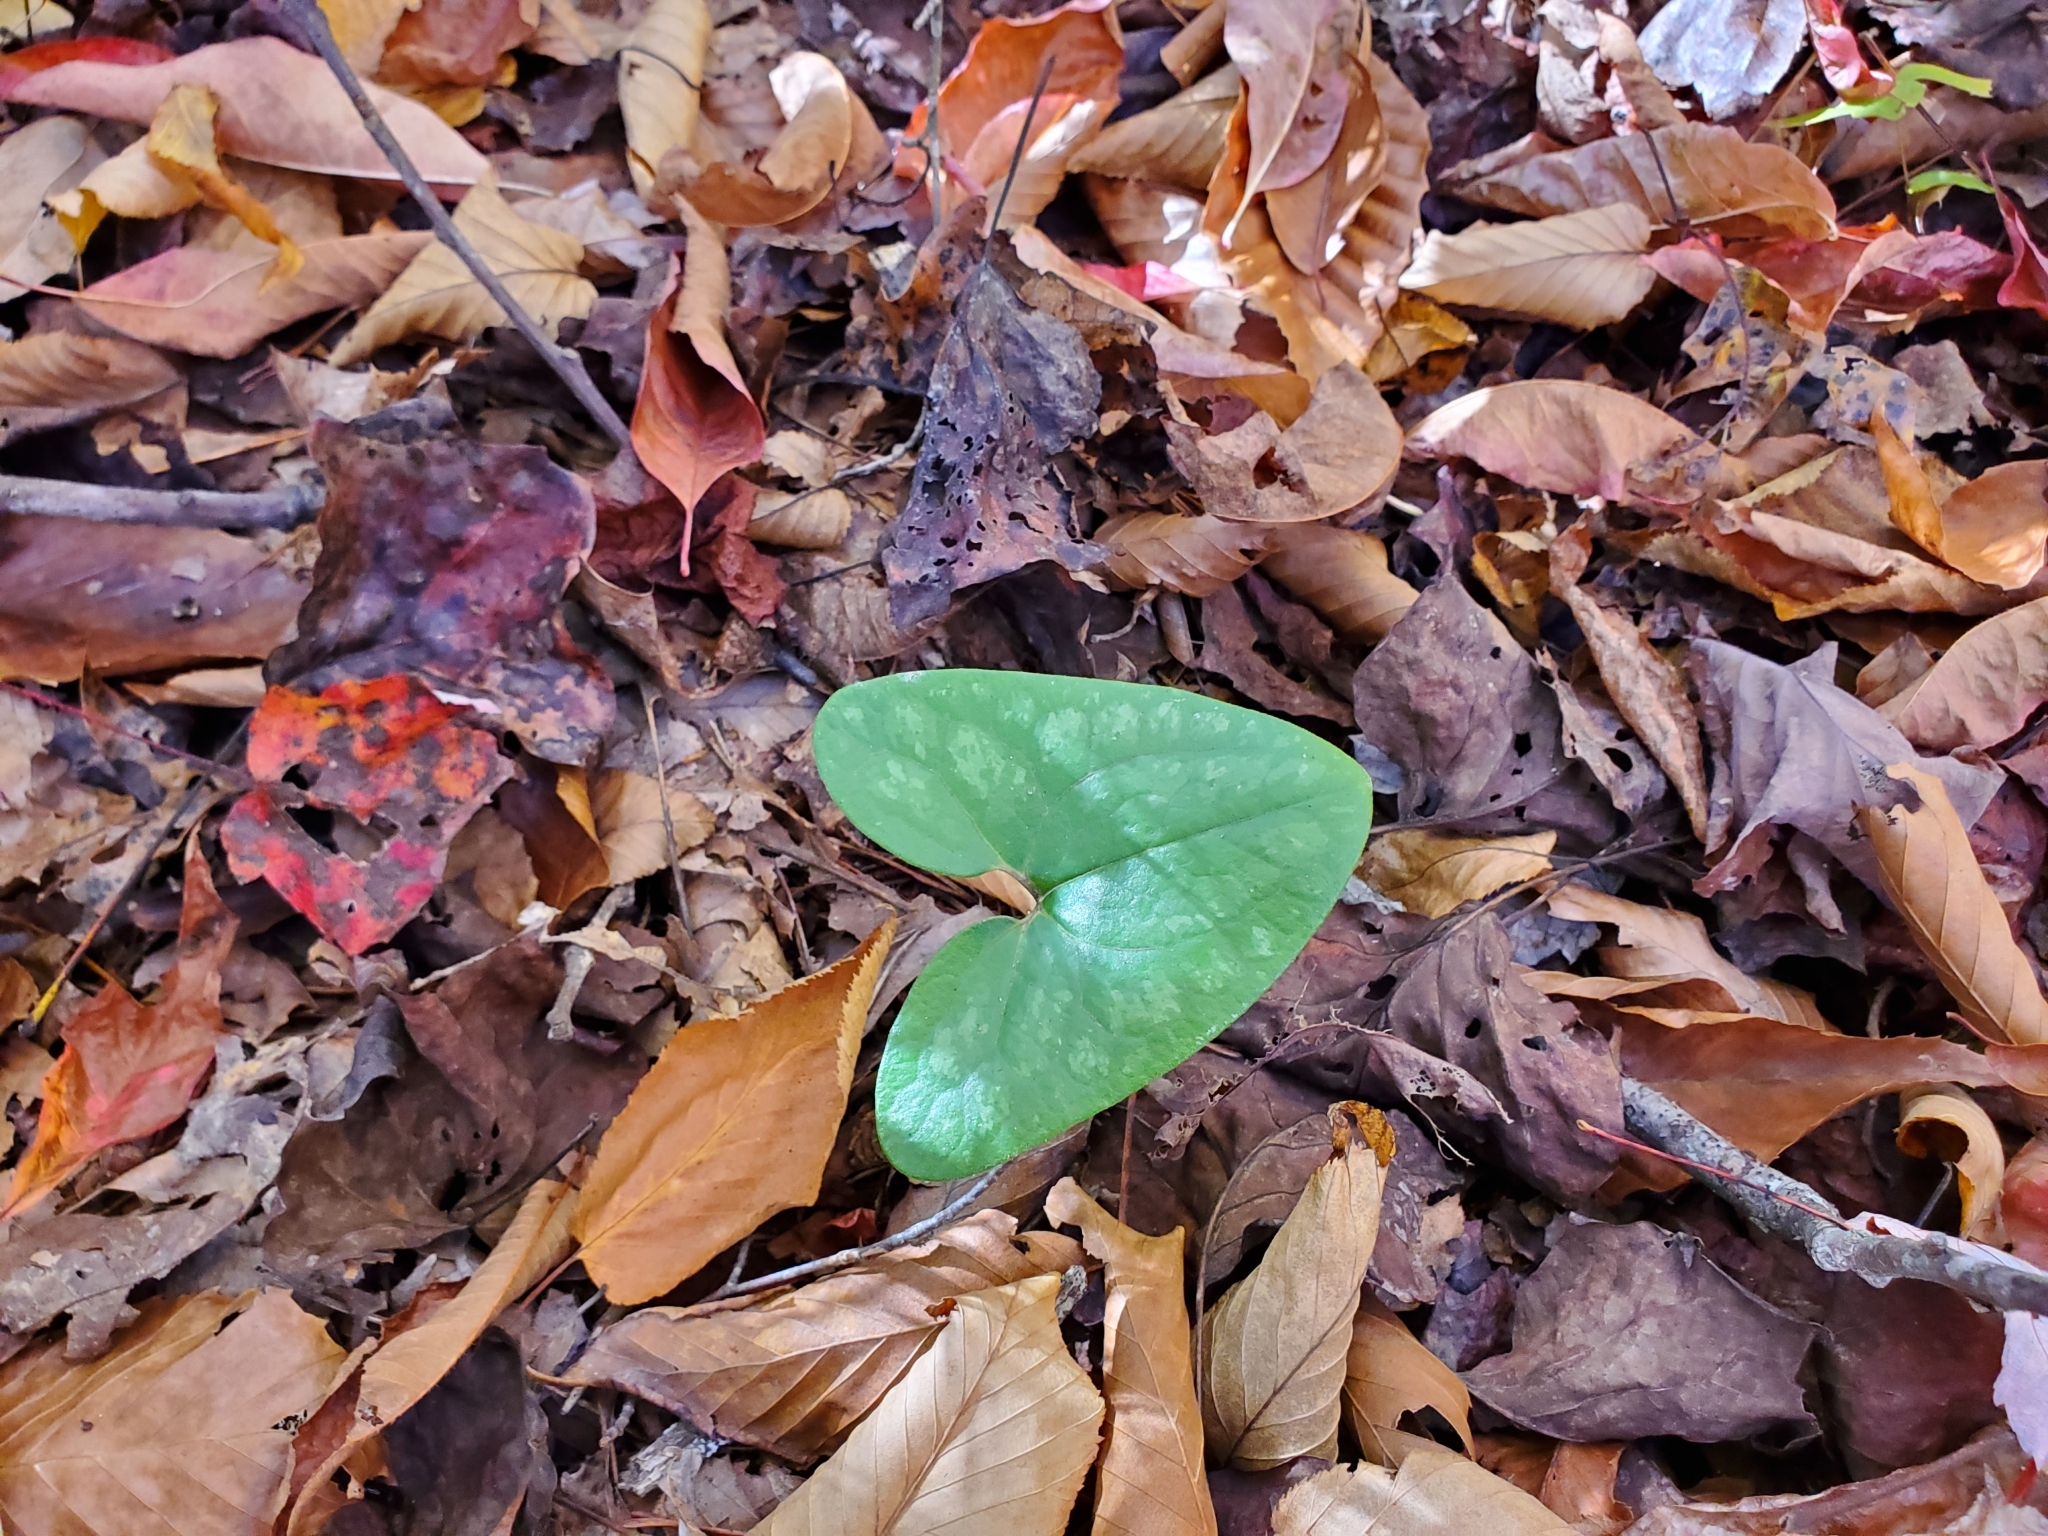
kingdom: Plantae
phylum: Tracheophyta
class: Magnoliopsida
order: Piperales
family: Aristolochiaceae
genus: Hexastylis
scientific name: Hexastylis arifolia
